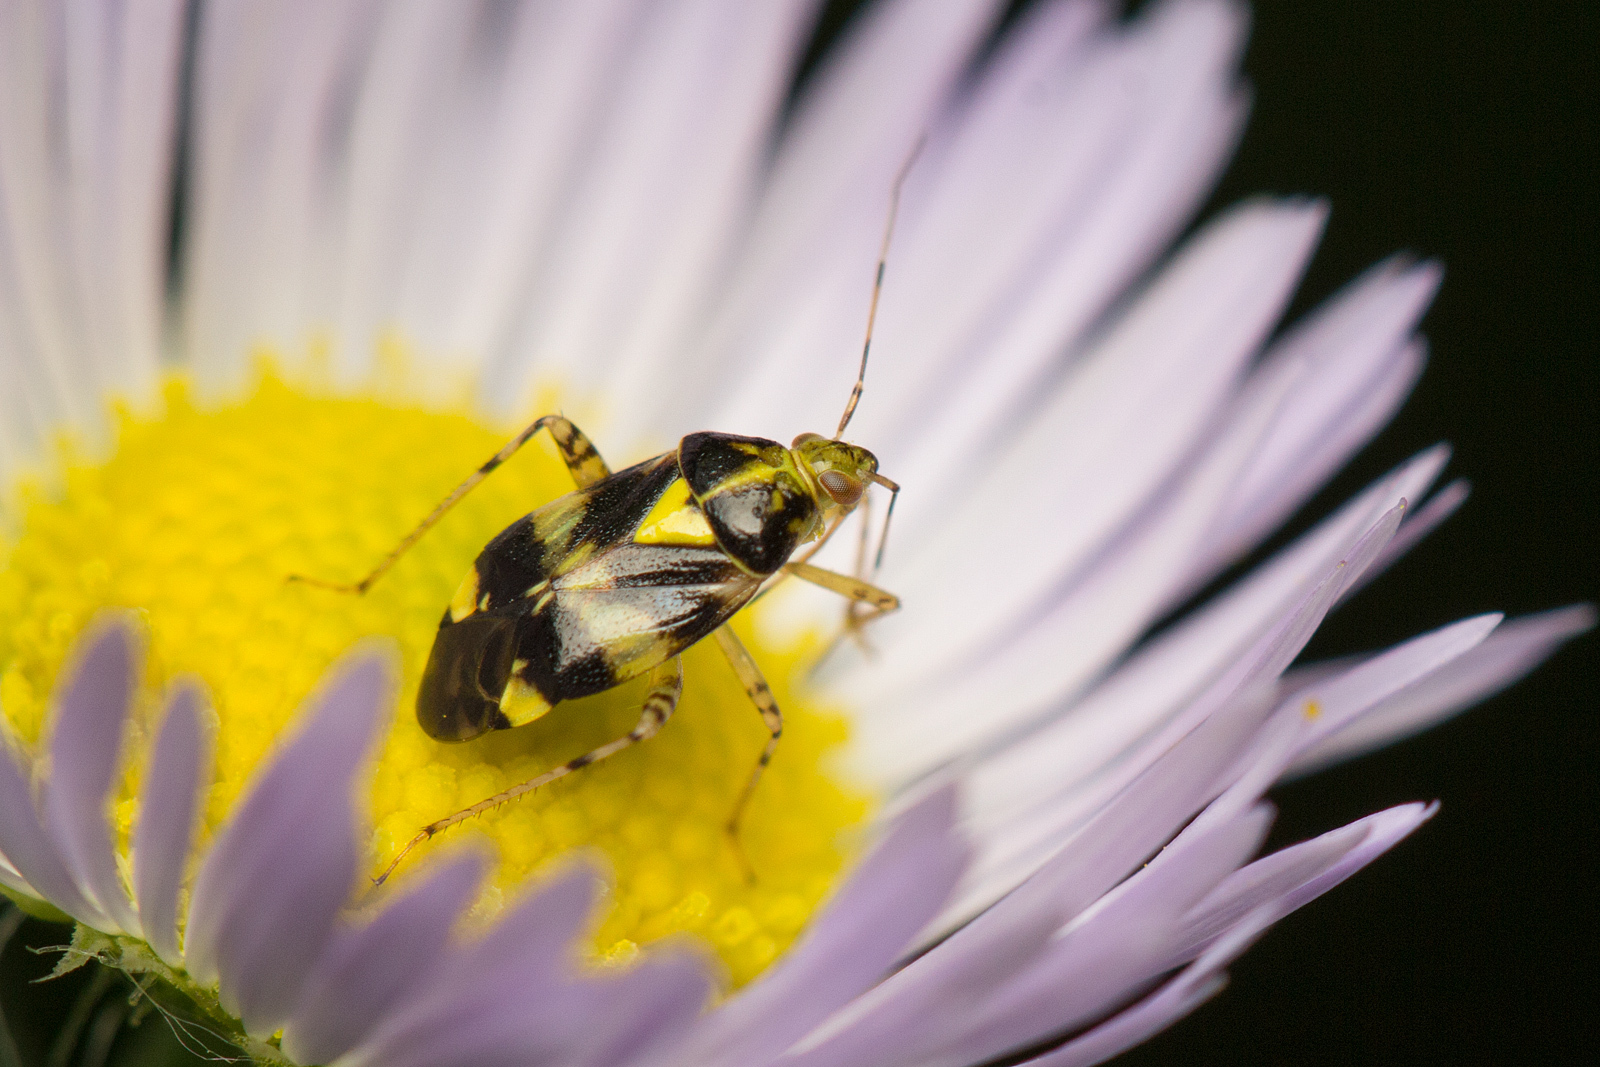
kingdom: Animalia
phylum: Arthropoda
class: Insecta
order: Hemiptera
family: Miridae
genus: Liocoris
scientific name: Liocoris tripustulatus
